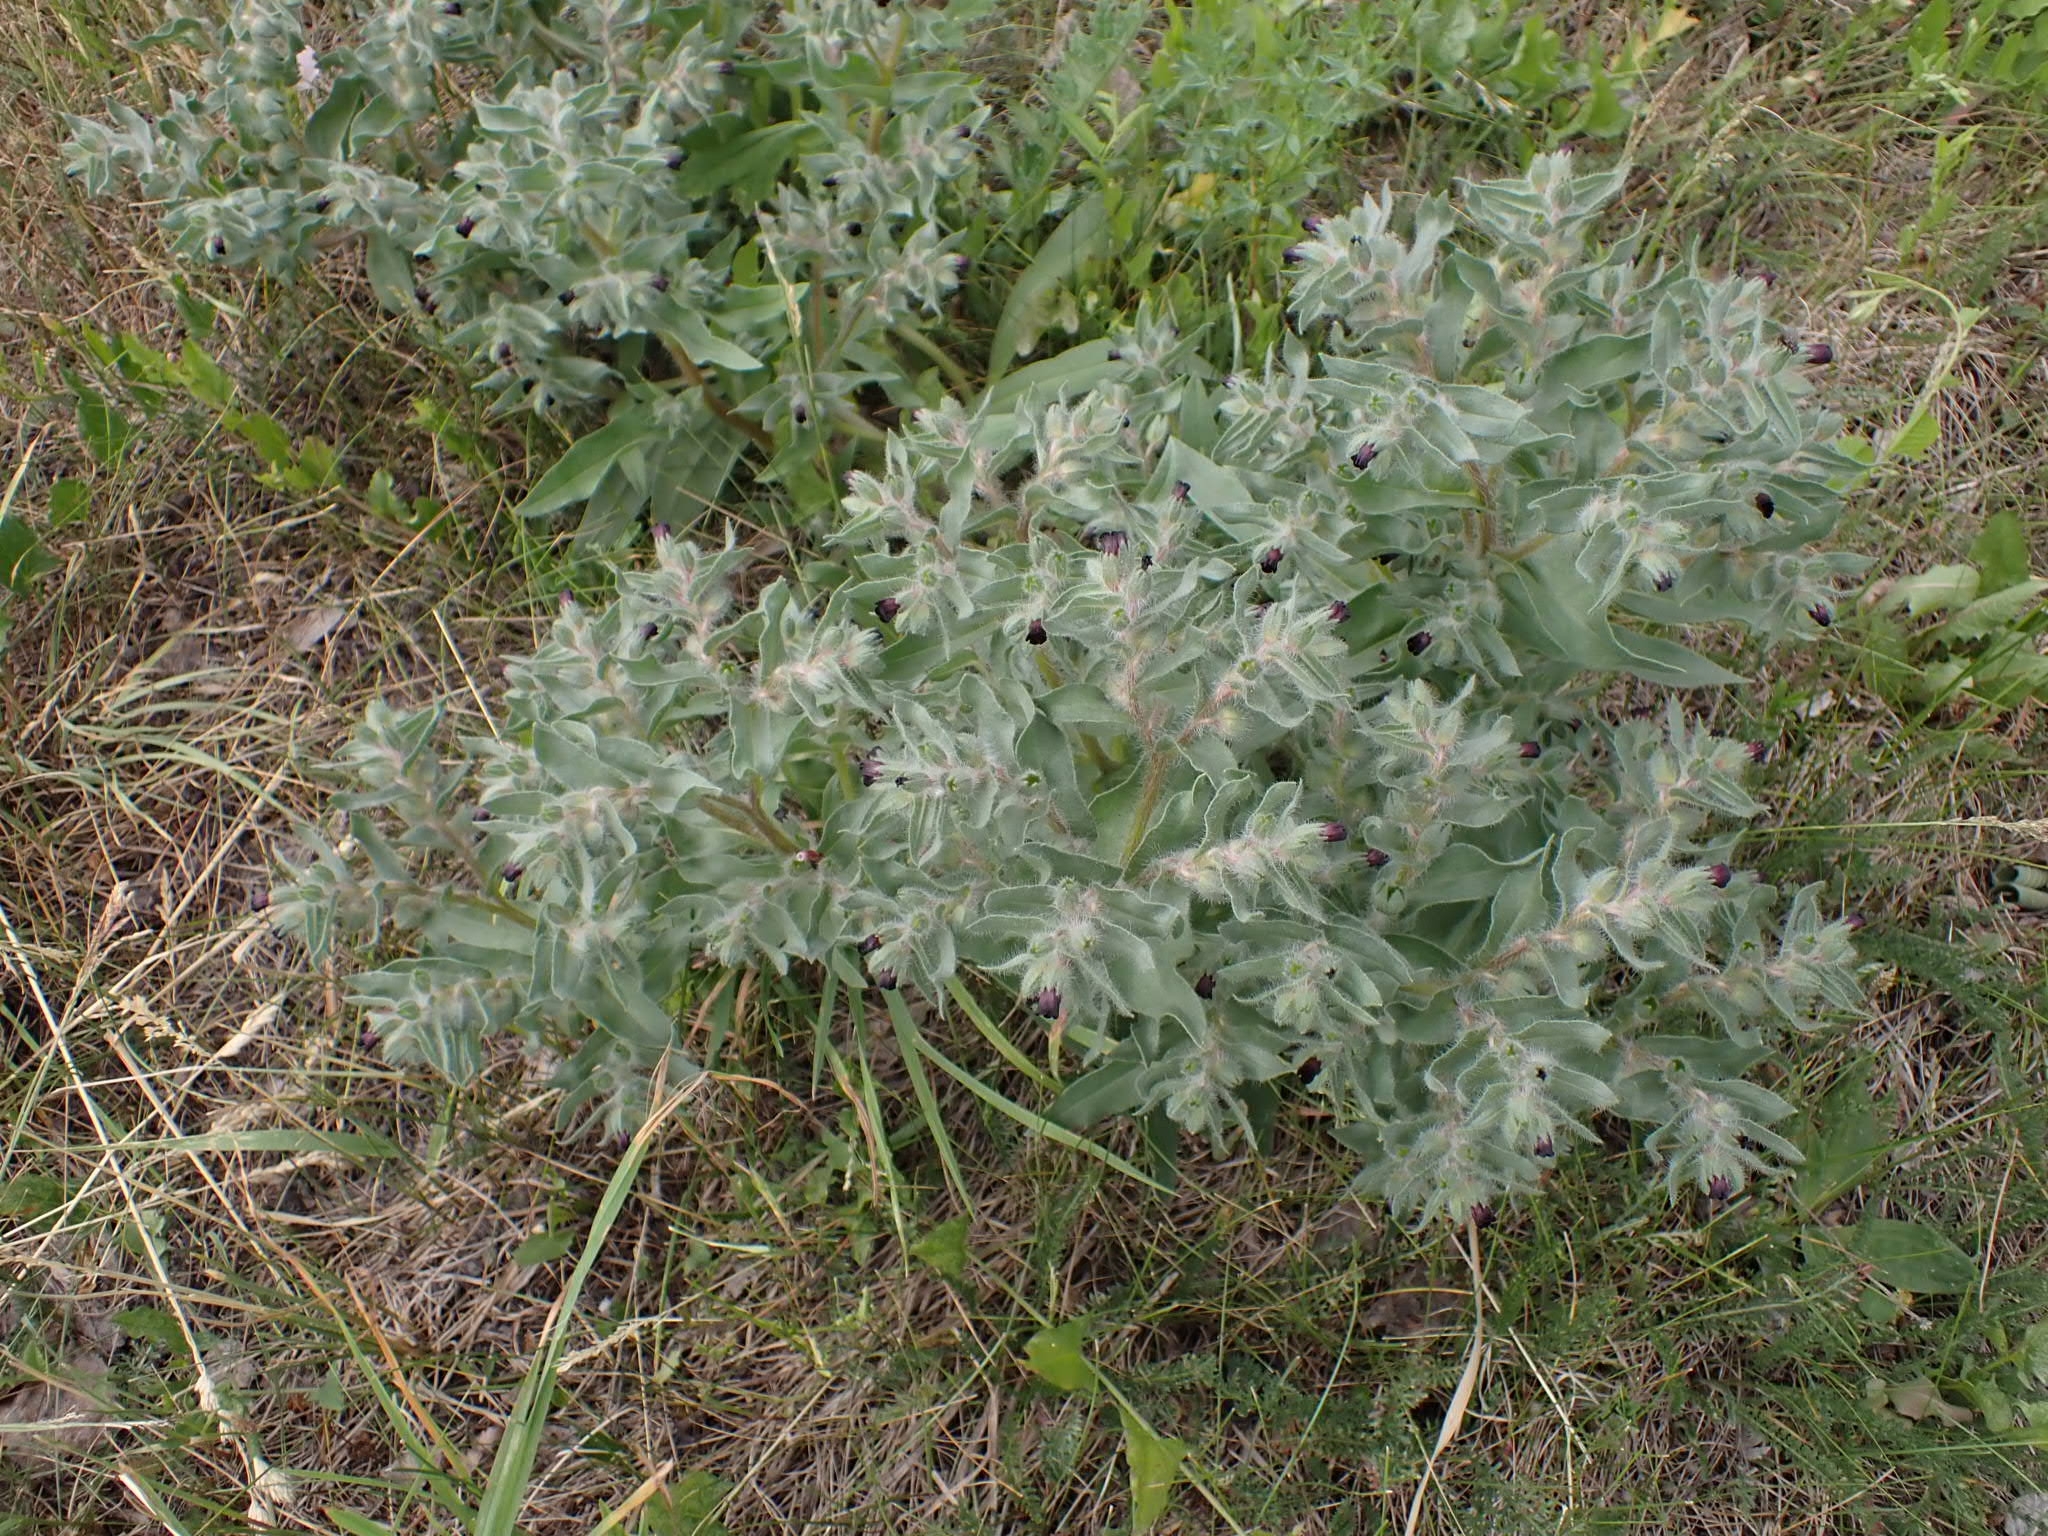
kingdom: Plantae
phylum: Tracheophyta
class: Magnoliopsida
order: Boraginales
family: Boraginaceae
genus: Nonea
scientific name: Nonea pulla
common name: Brown nonea
